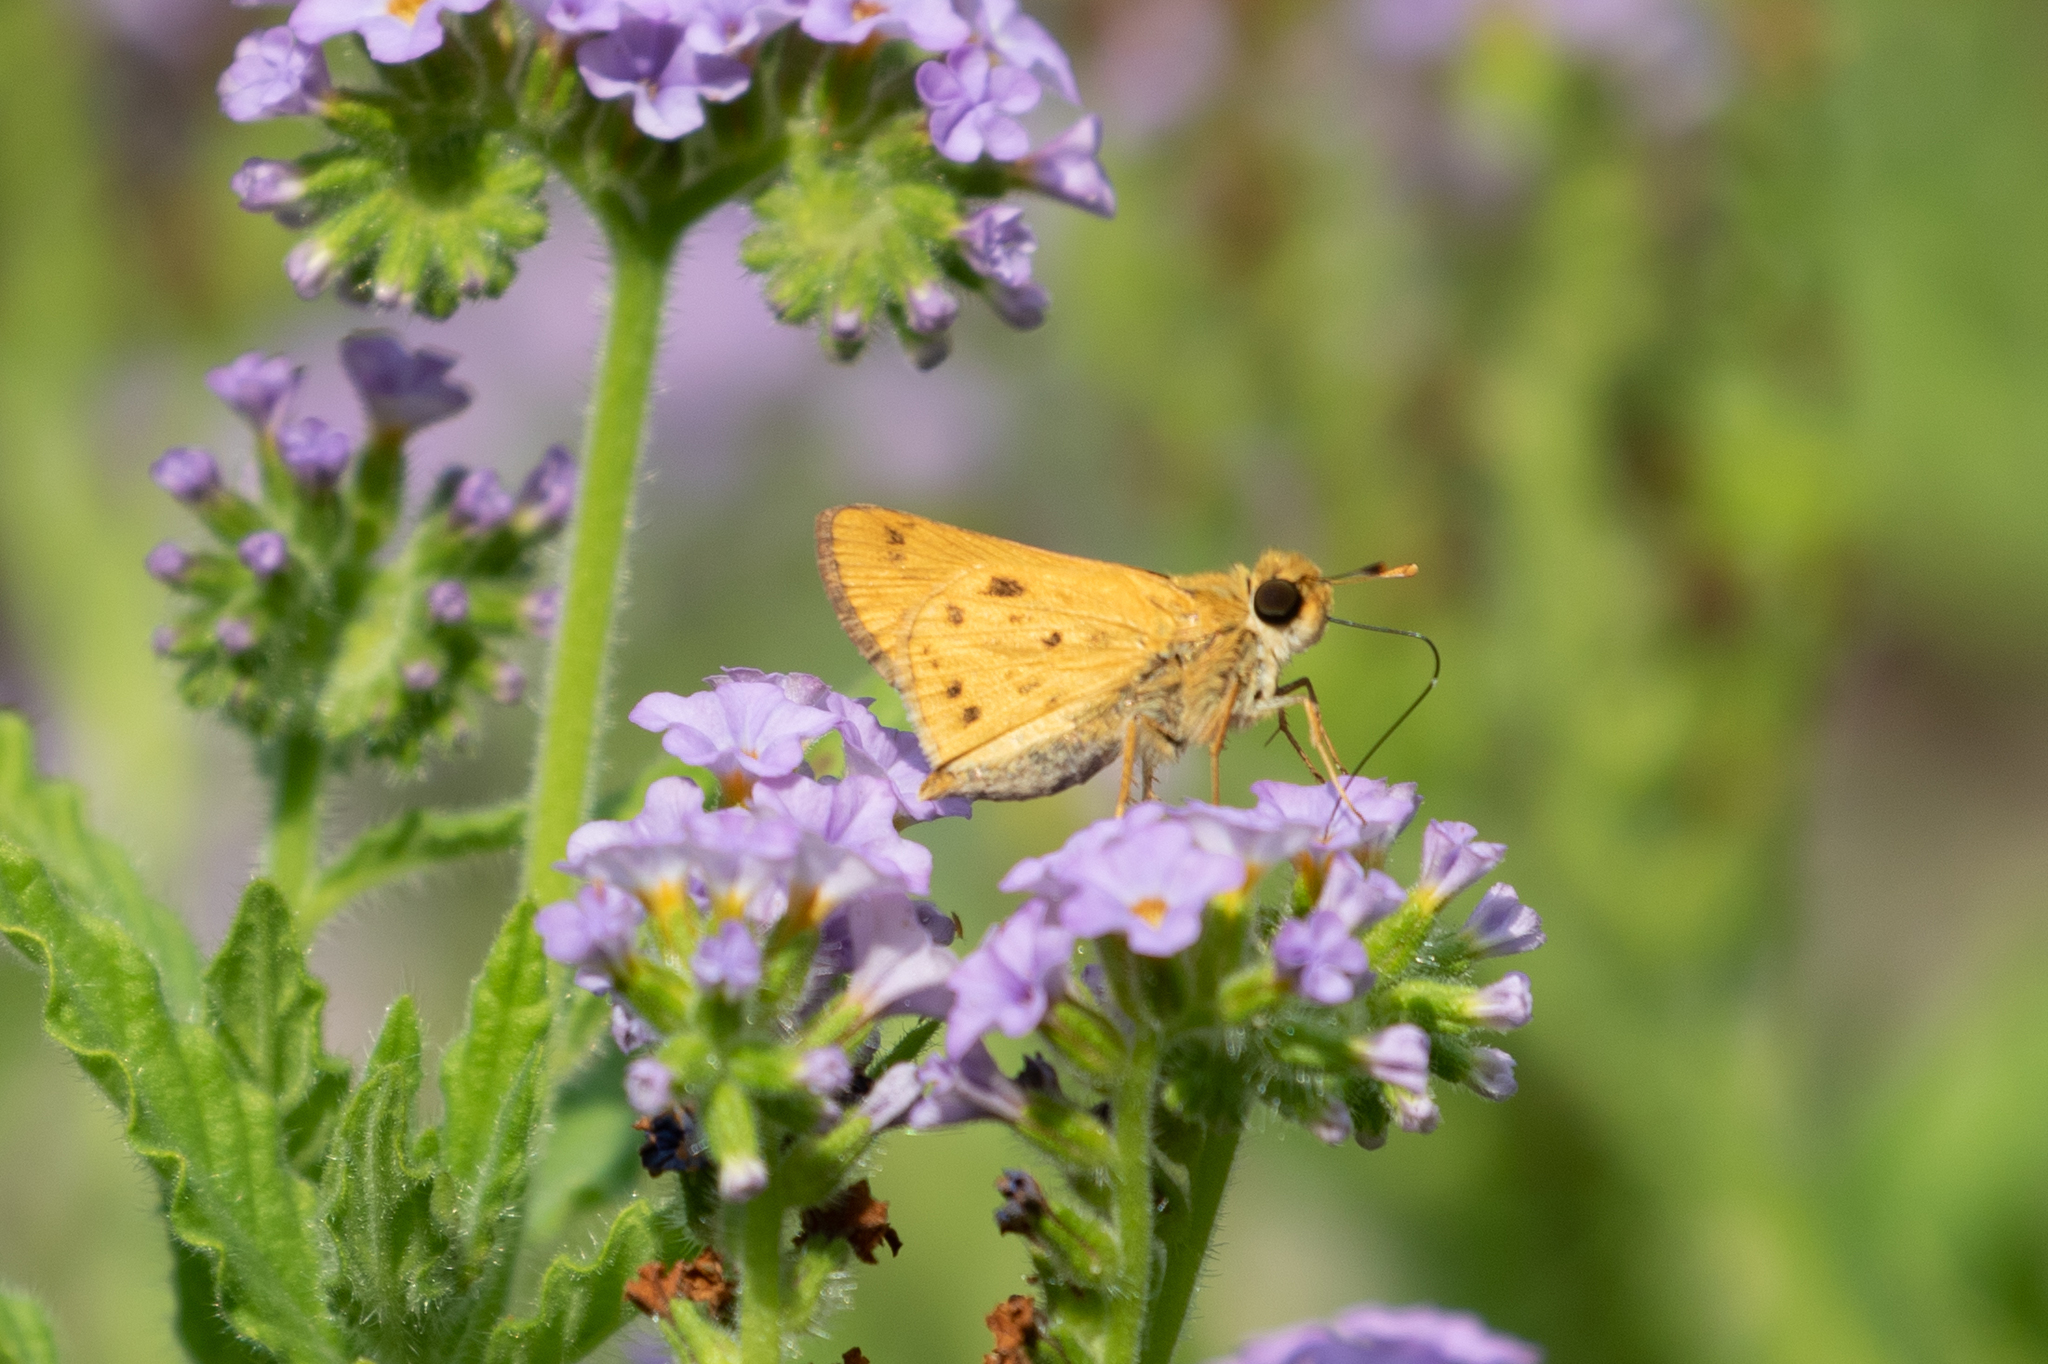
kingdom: Animalia
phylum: Arthropoda
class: Insecta
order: Lepidoptera
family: Hesperiidae
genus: Hylephila
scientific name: Hylephila phyleus
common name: Fiery skipper
